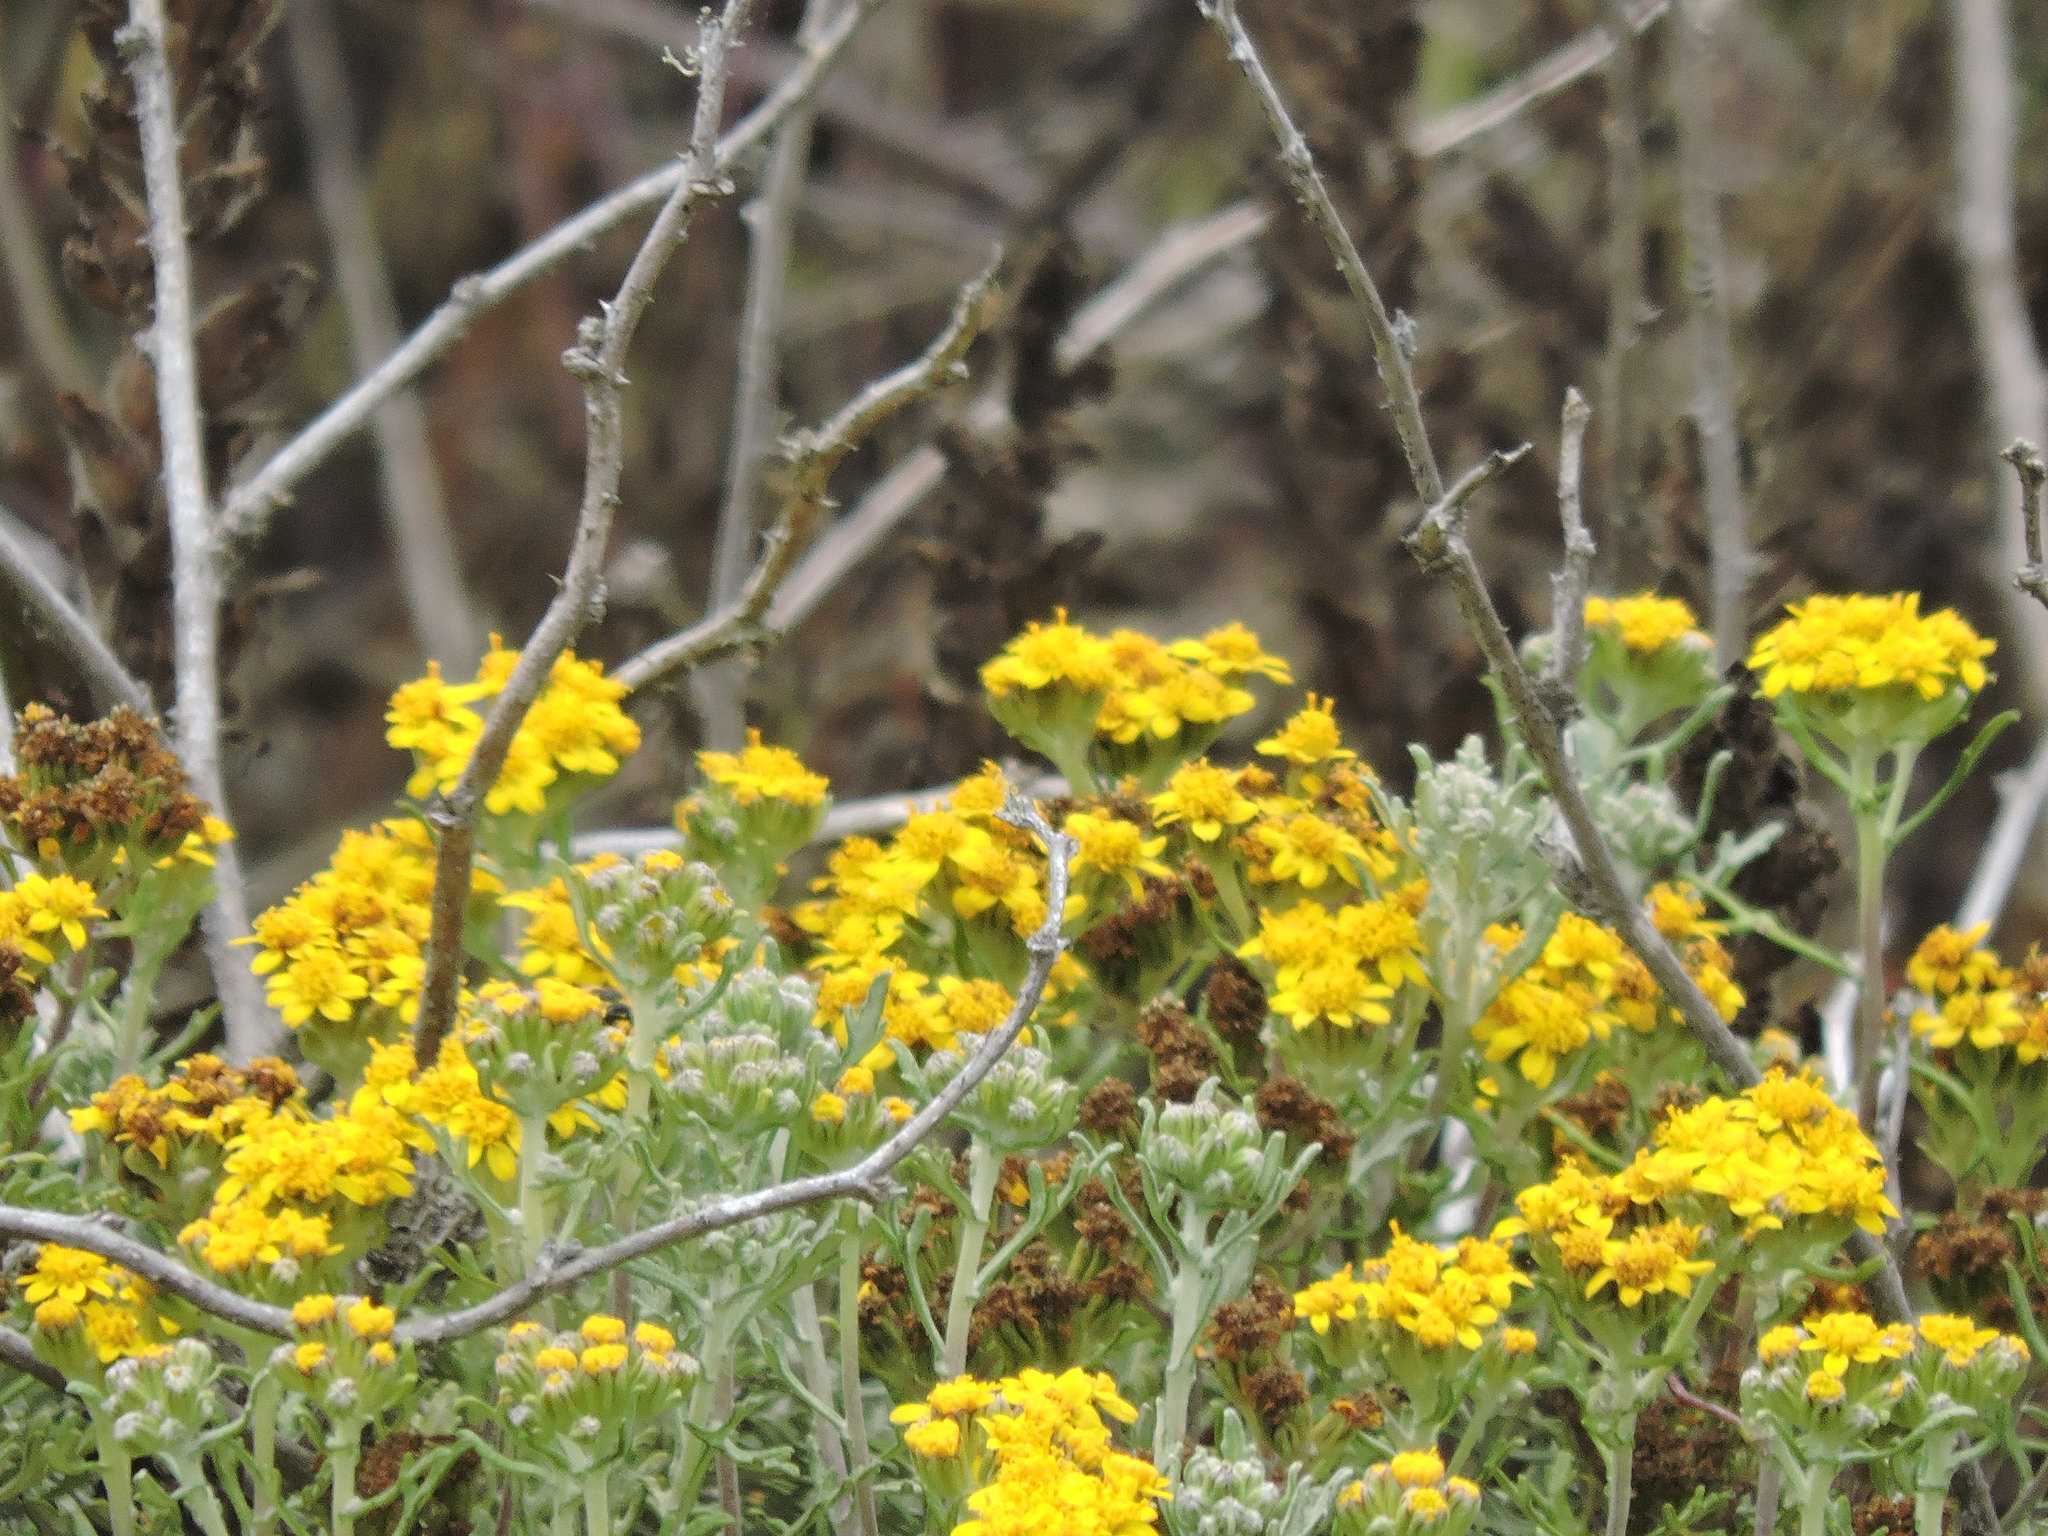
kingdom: Plantae
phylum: Tracheophyta
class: Magnoliopsida
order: Asterales
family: Asteraceae
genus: Eriophyllum
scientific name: Eriophyllum staechadifolium
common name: Lizardtail
